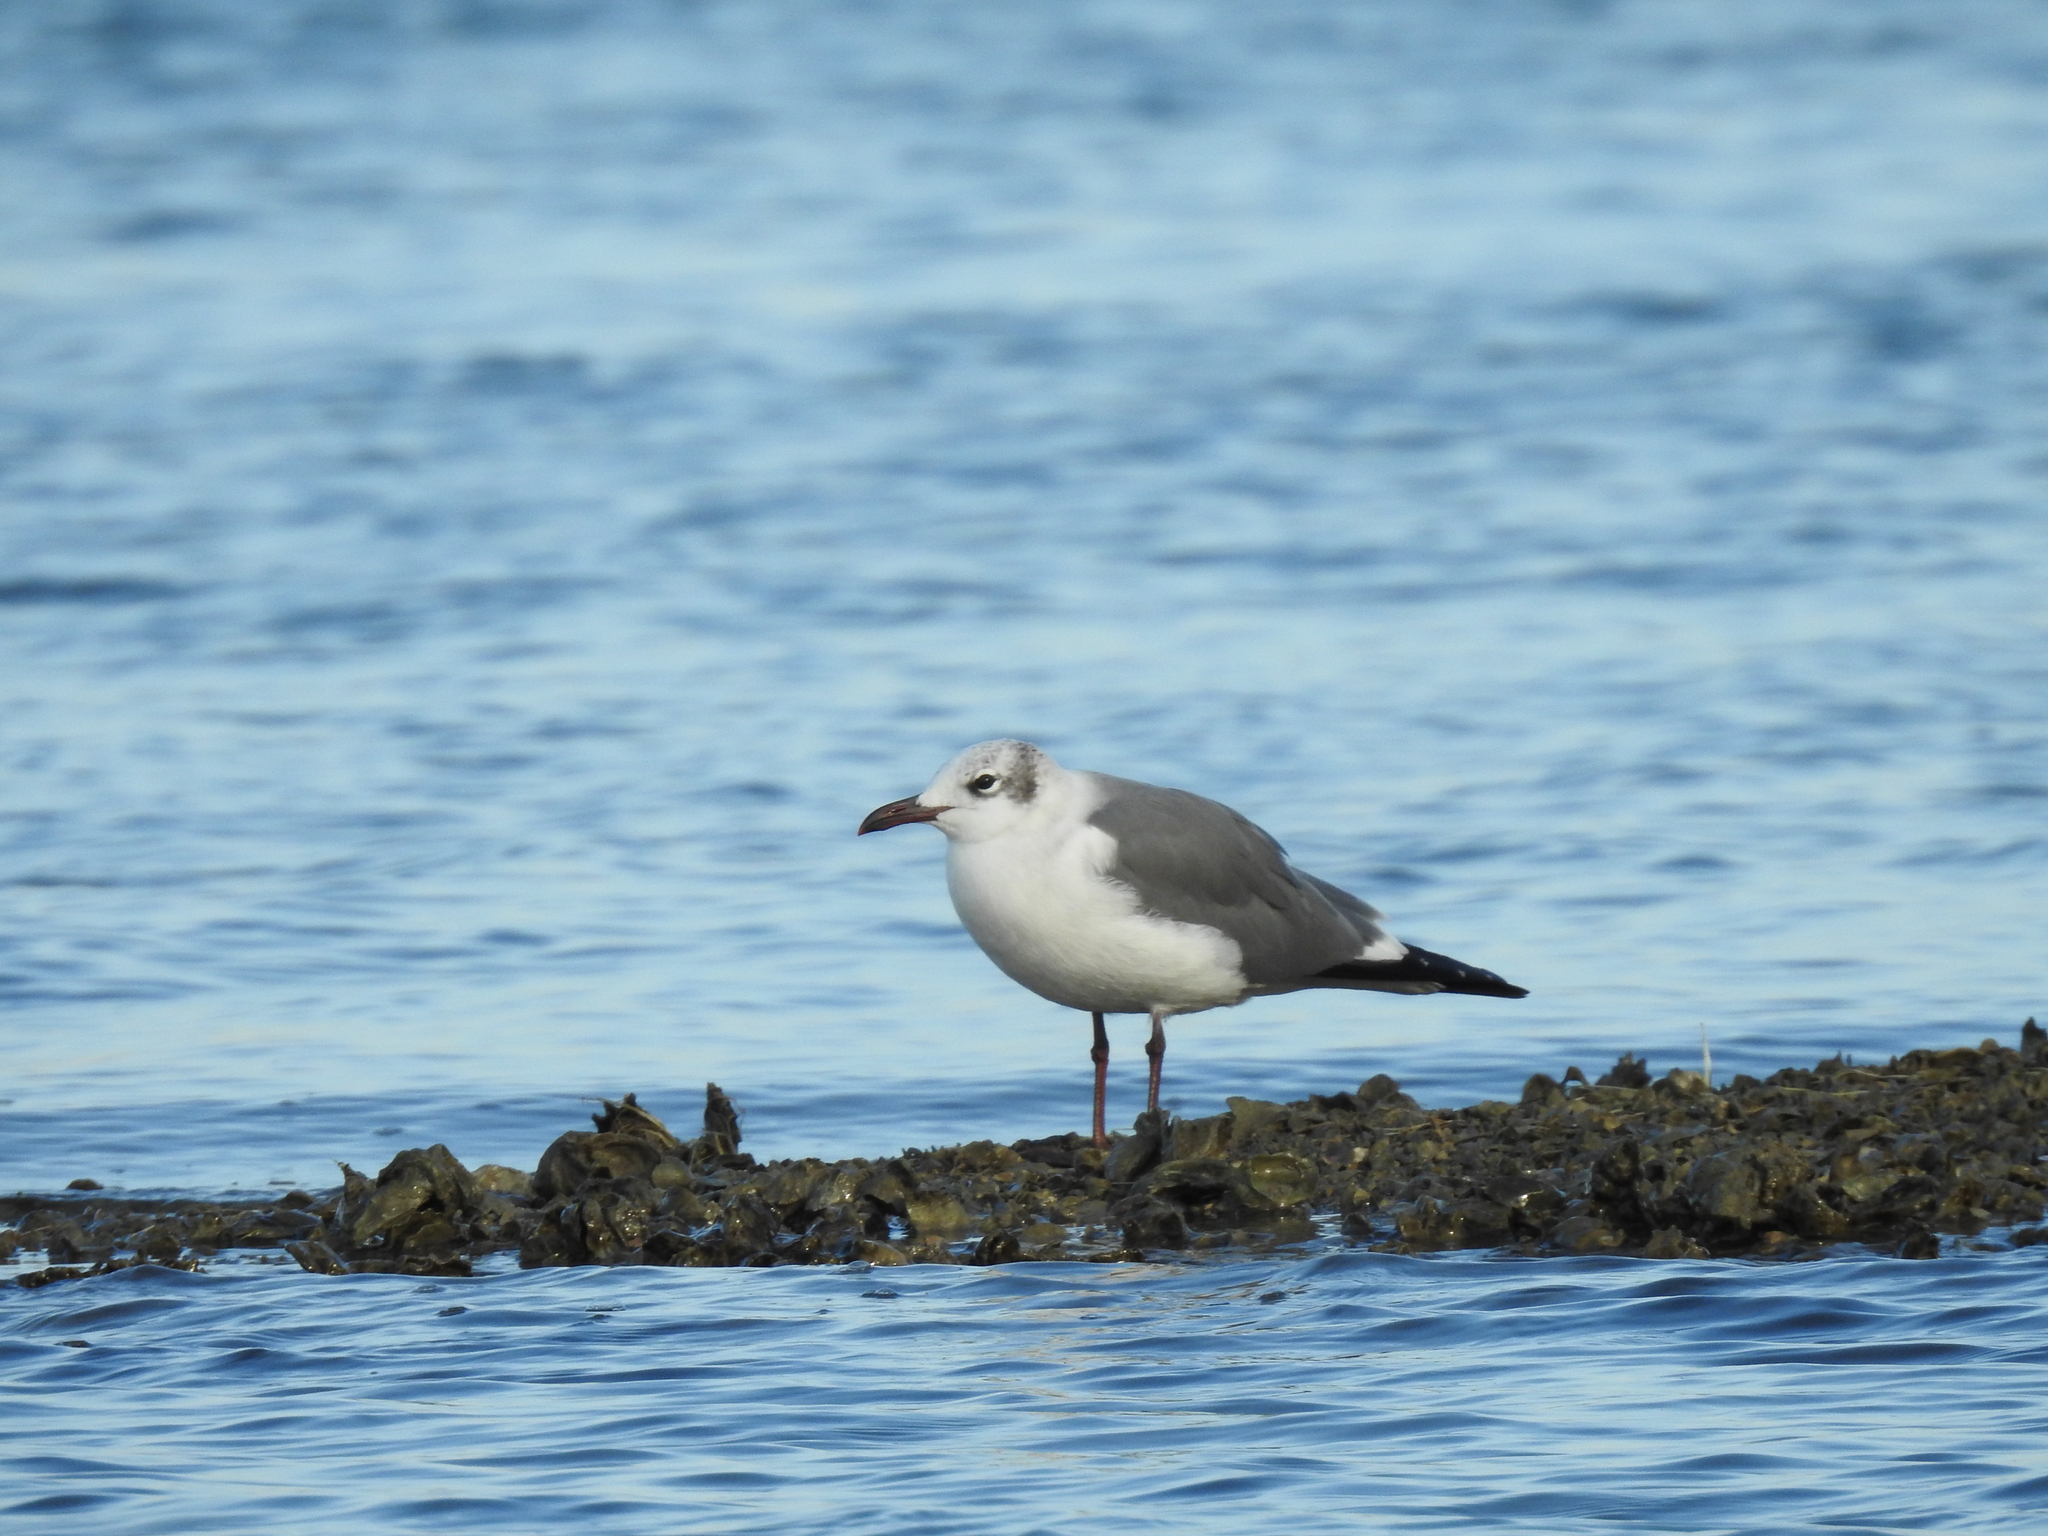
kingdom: Animalia
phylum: Chordata
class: Aves
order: Charadriiformes
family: Laridae
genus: Leucophaeus
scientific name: Leucophaeus atricilla
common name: Laughing gull
